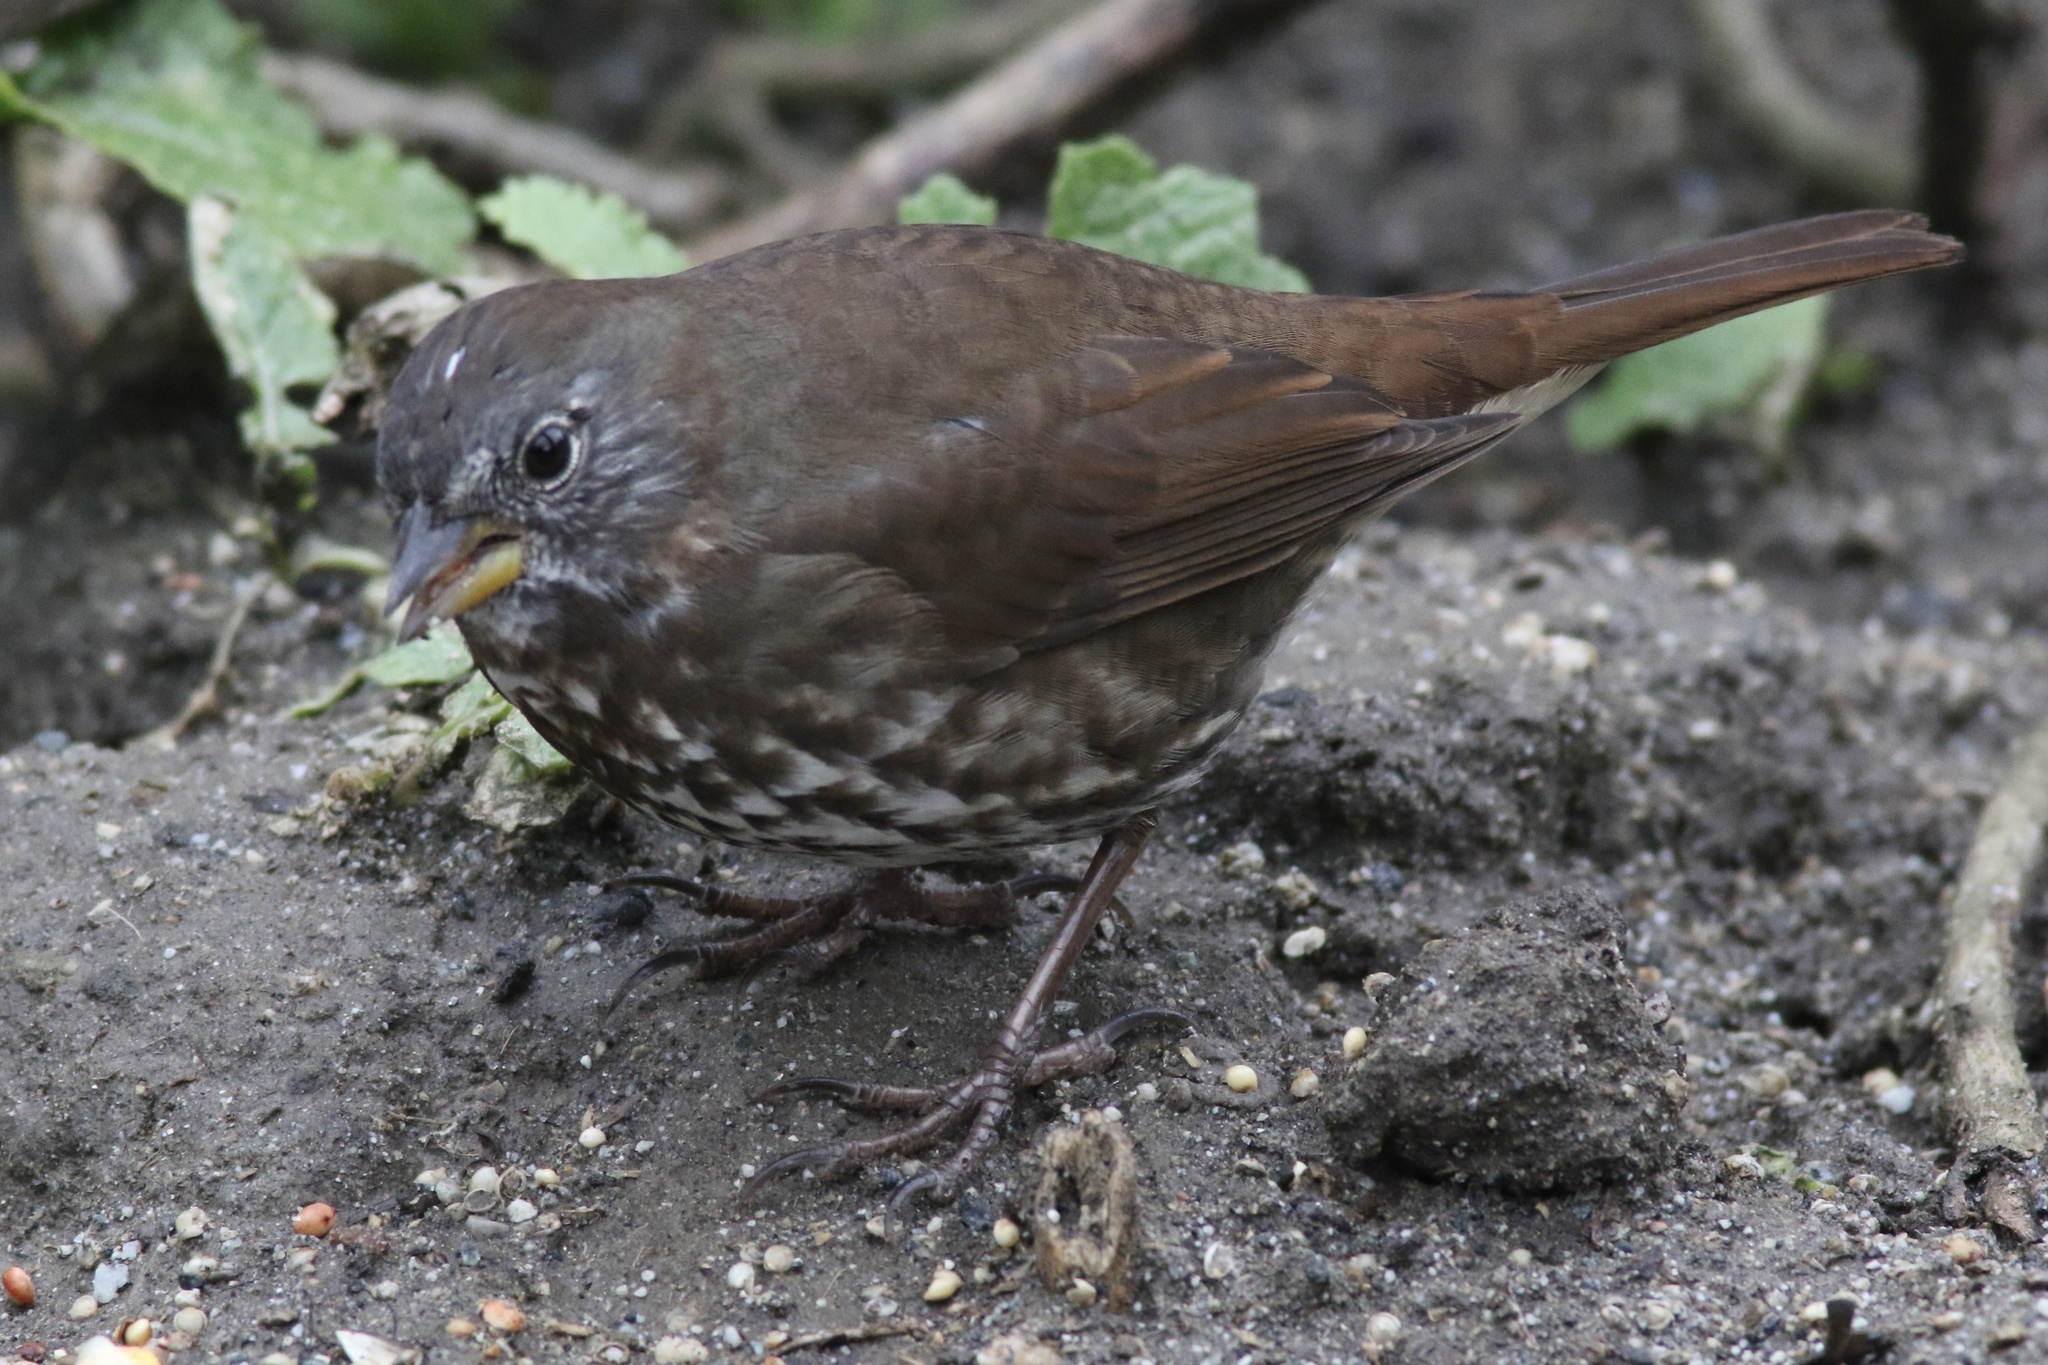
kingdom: Animalia
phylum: Chordata
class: Aves
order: Passeriformes
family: Passerellidae
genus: Passerella
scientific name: Passerella iliaca
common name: Fox sparrow
